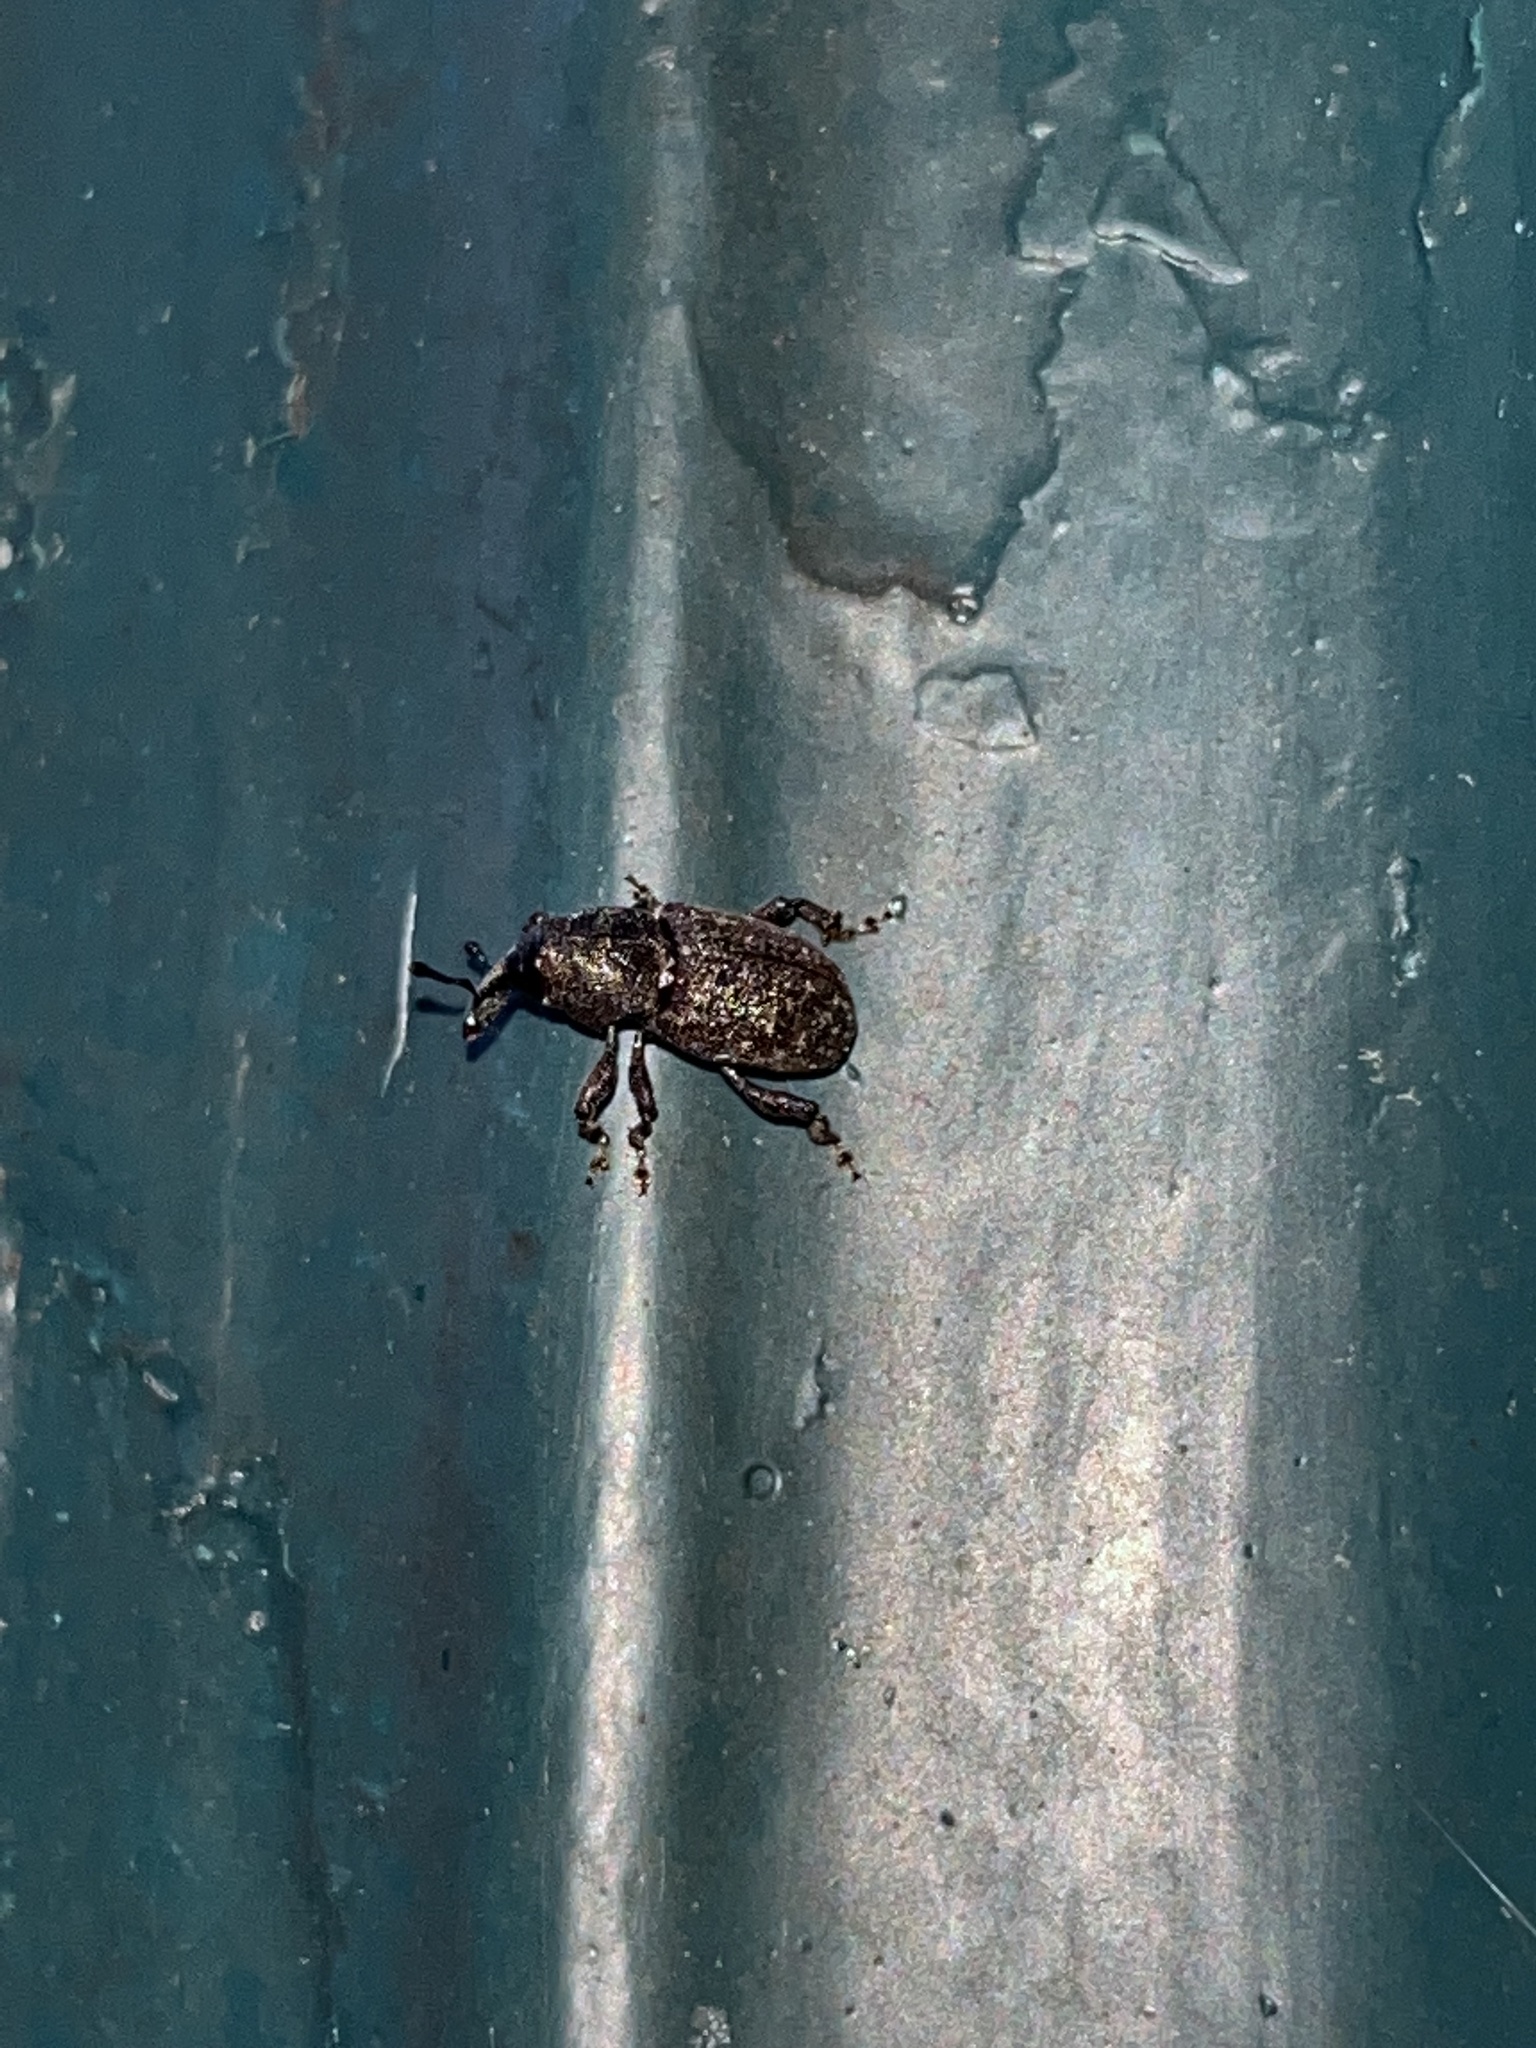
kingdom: Animalia
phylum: Arthropoda
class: Insecta
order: Coleoptera
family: Curculionidae
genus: Pachylobius
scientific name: Pachylobius picivorus
